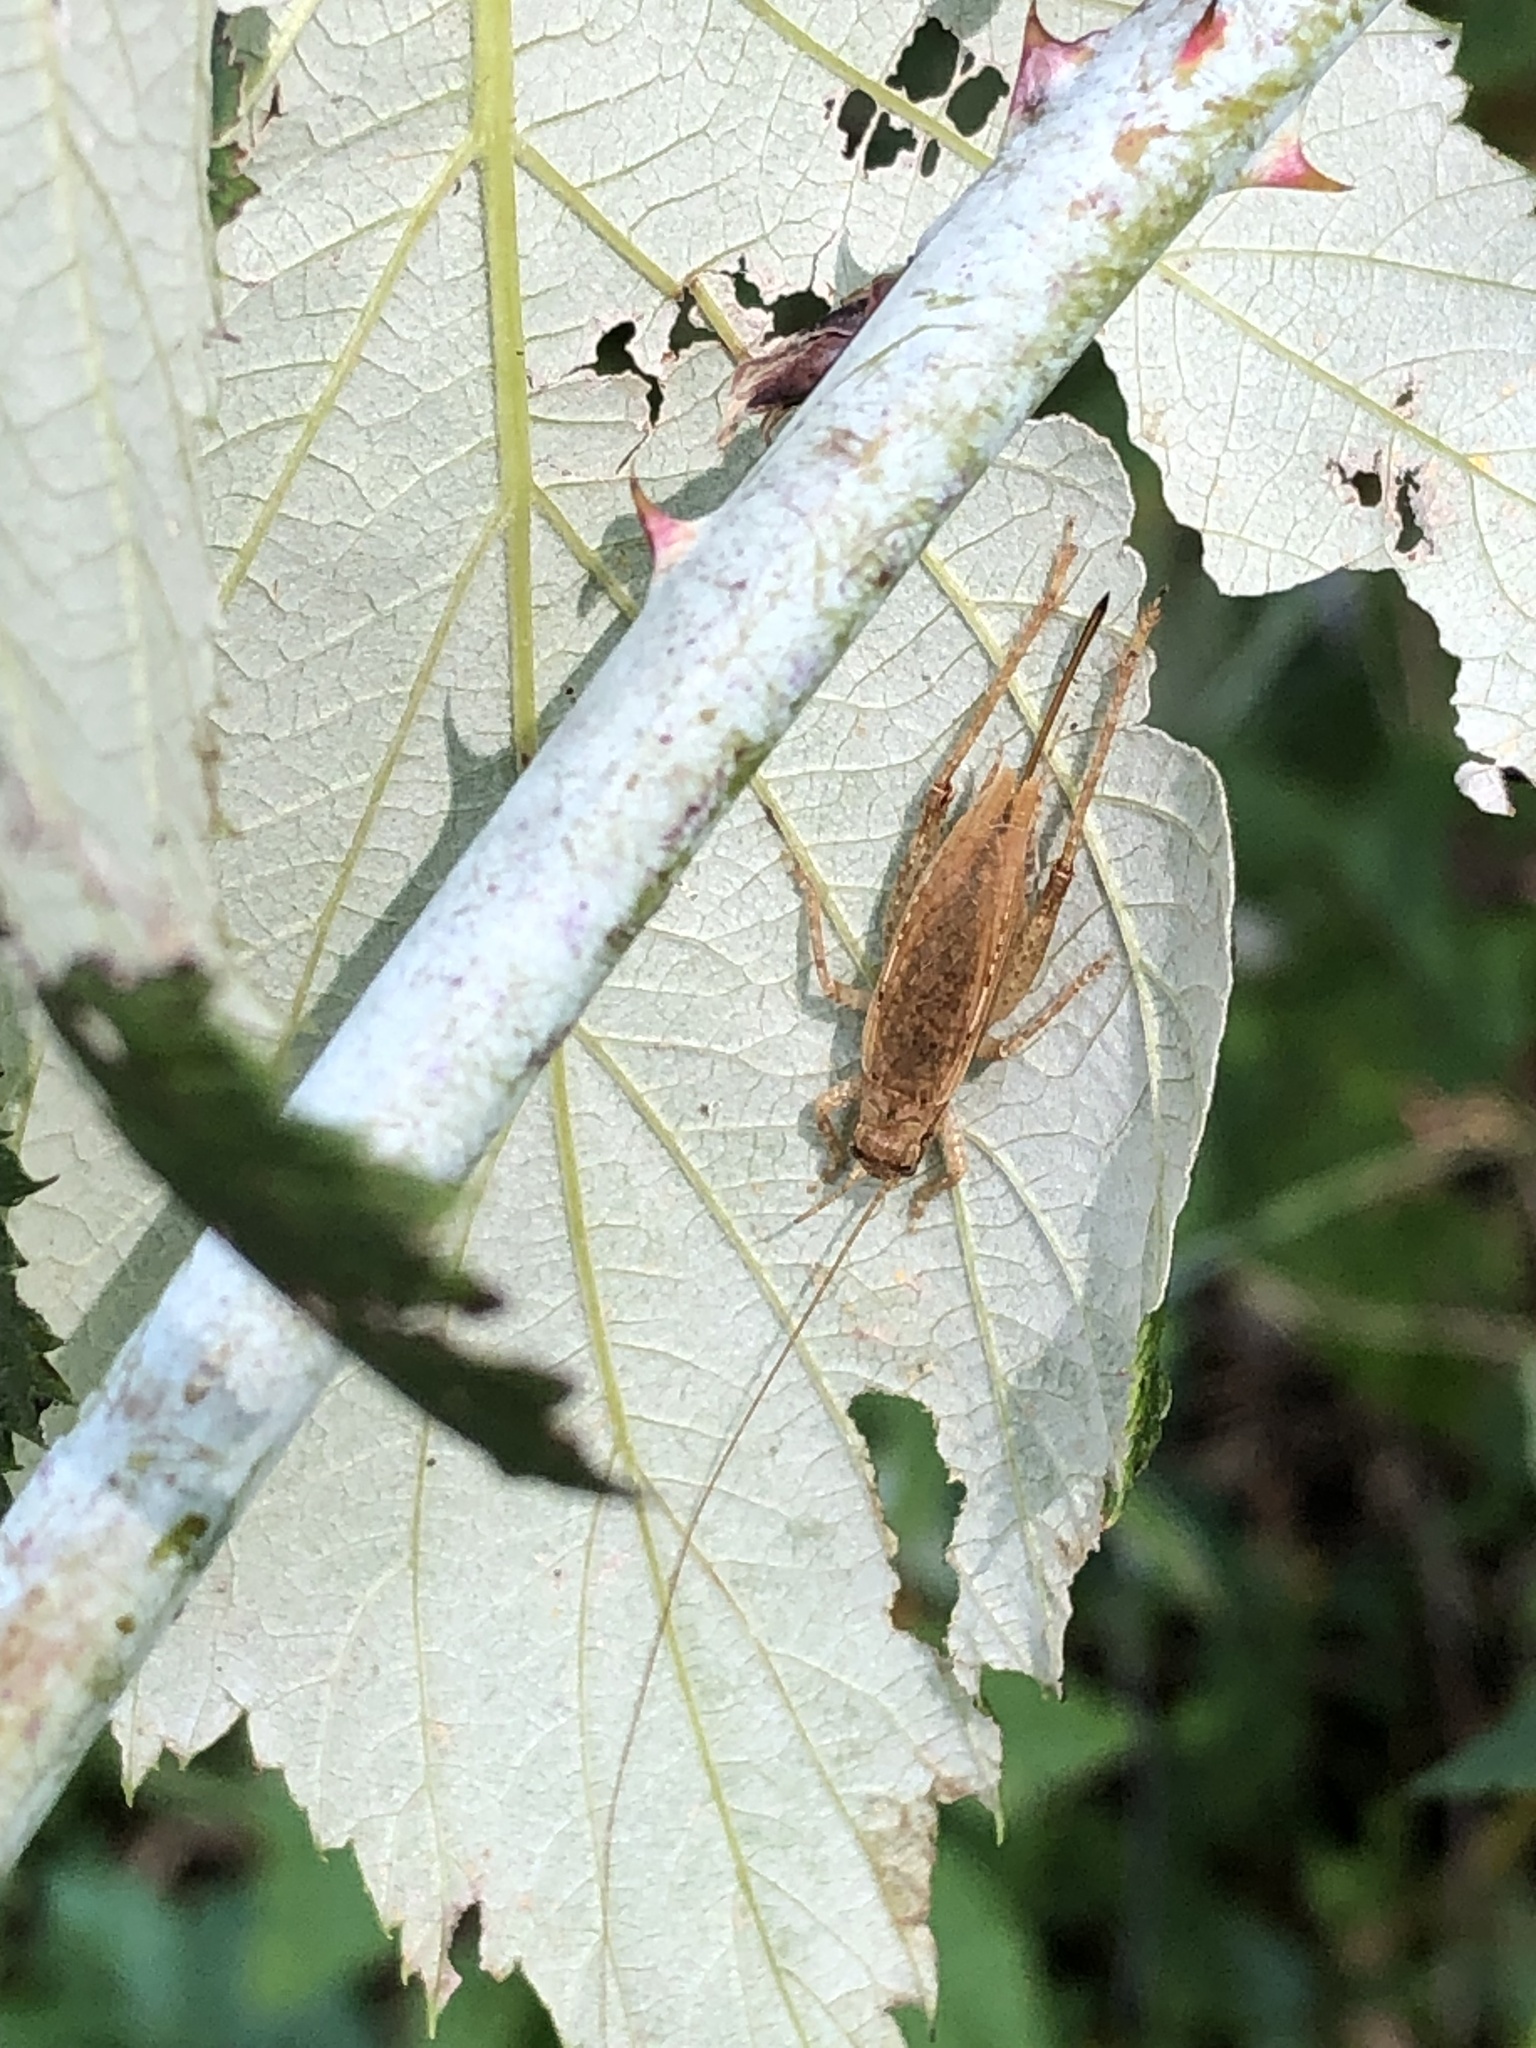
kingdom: Animalia
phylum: Arthropoda
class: Insecta
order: Orthoptera
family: Gryllidae
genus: Hapithus
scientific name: Hapithus saltator
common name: Jumping bush cricket
